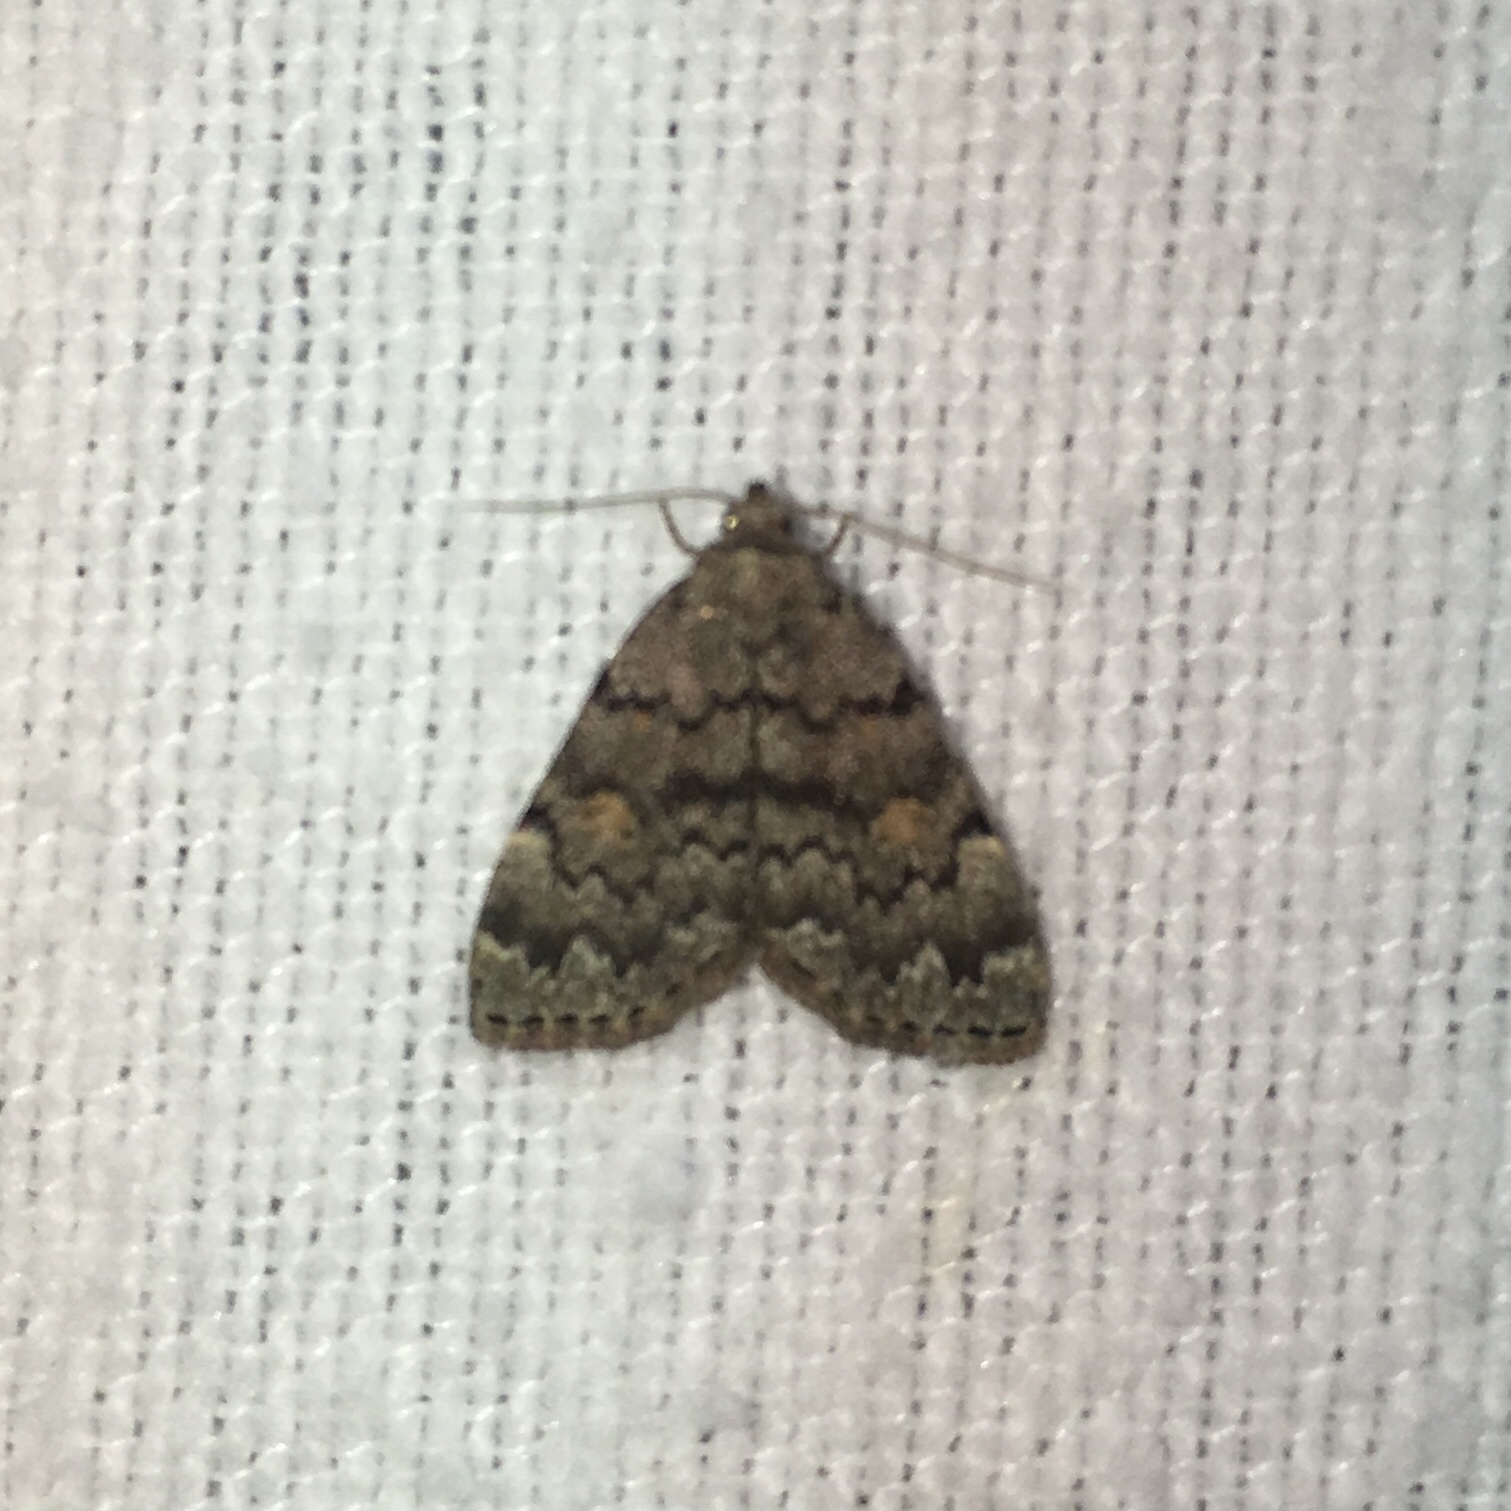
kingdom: Animalia
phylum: Arthropoda
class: Insecta
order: Lepidoptera
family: Erebidae
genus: Idia
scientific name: Idia aemula
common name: Common idia moth
